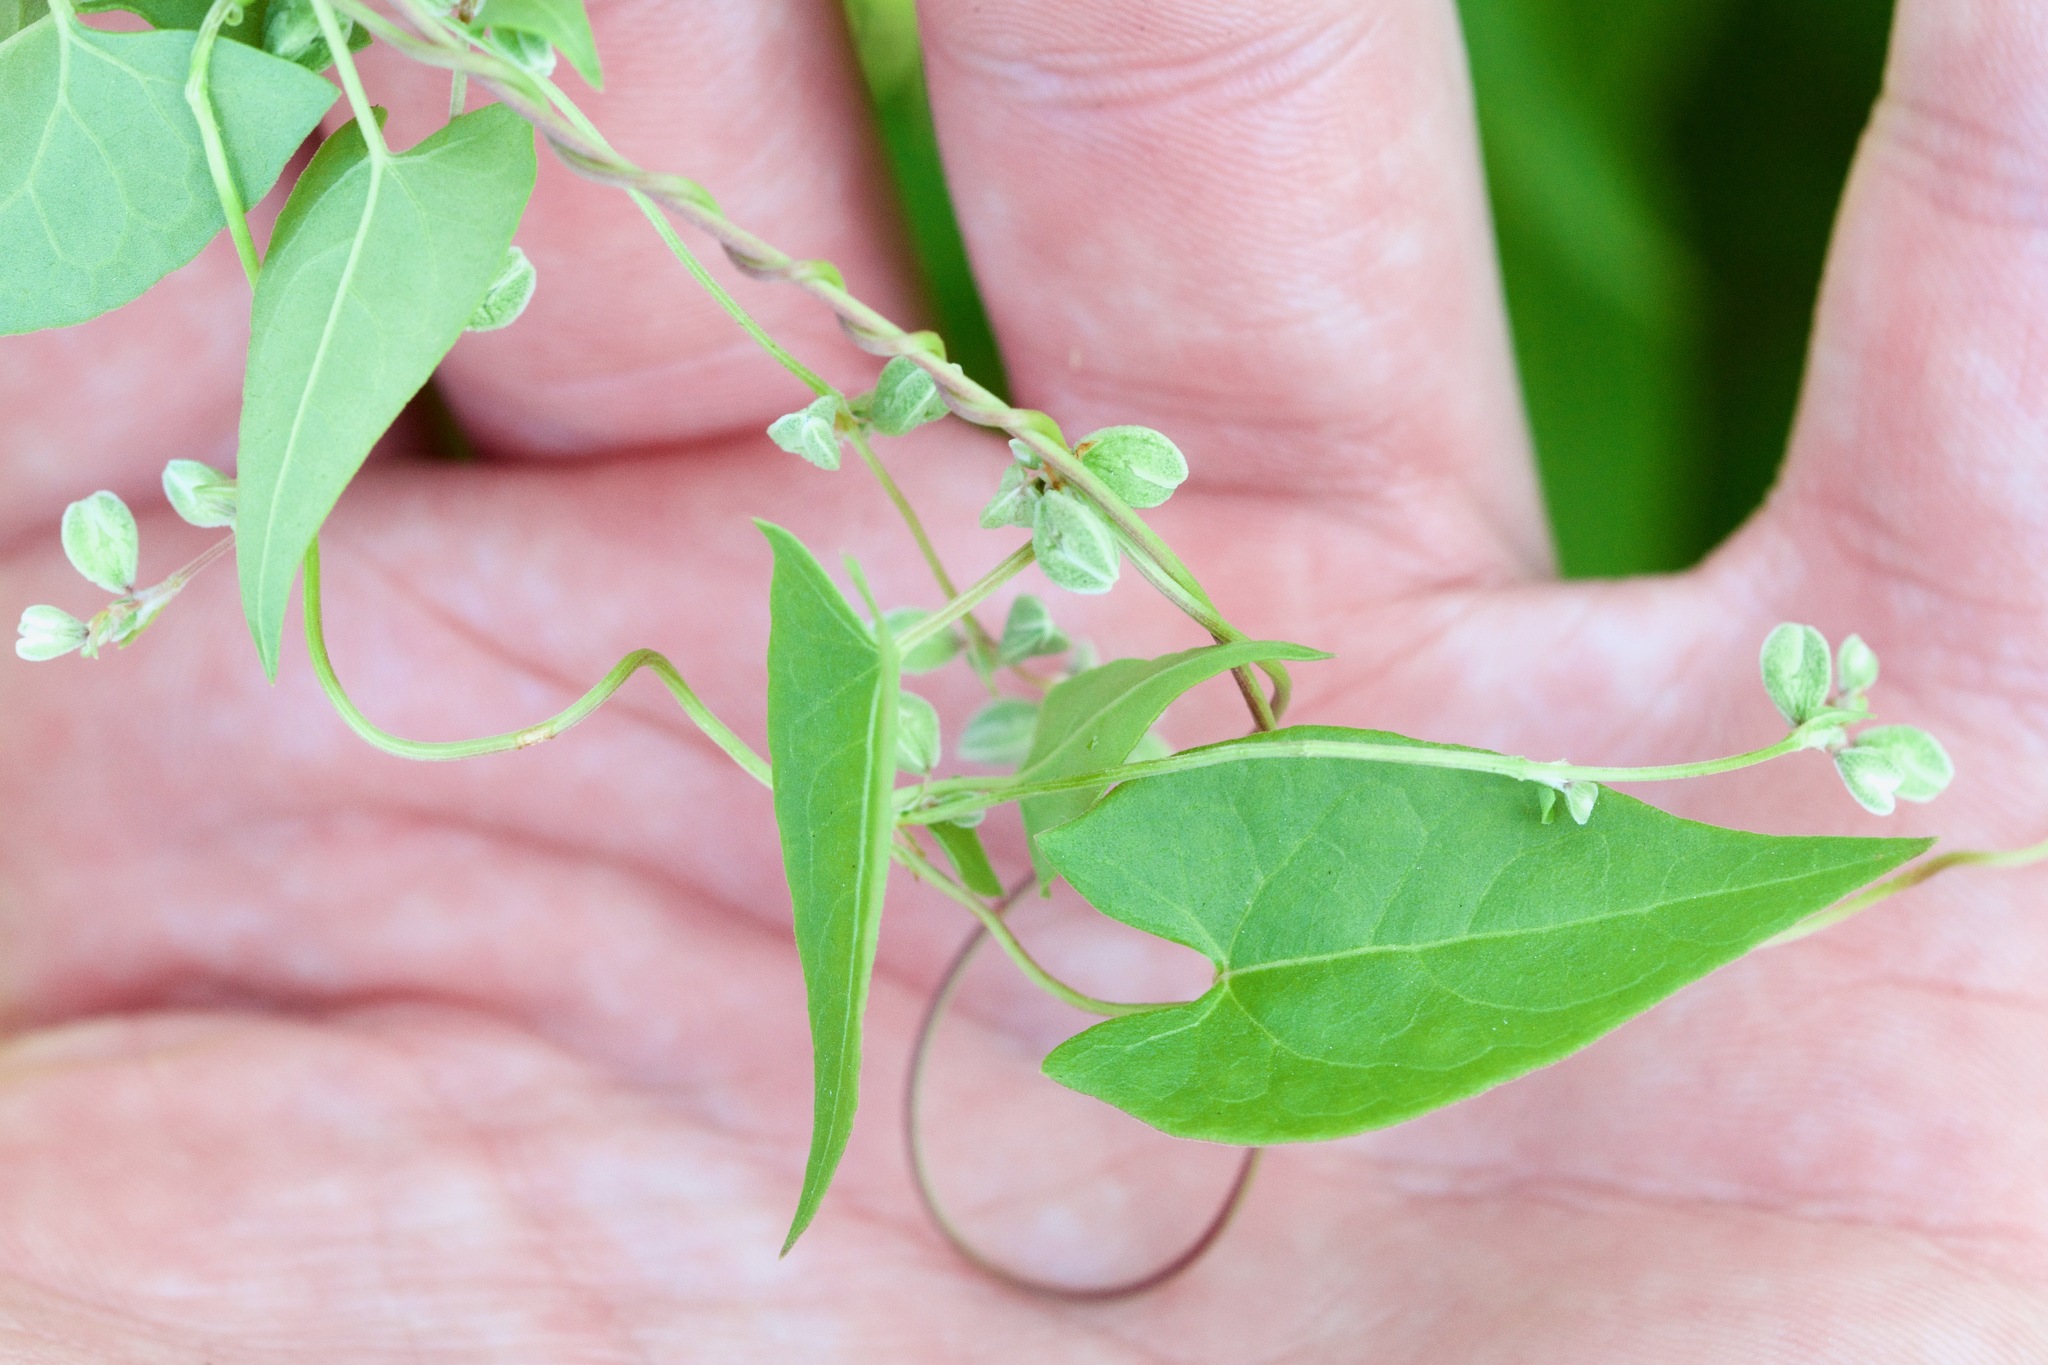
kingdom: Plantae
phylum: Tracheophyta
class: Magnoliopsida
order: Caryophyllales
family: Polygonaceae
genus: Fallopia
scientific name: Fallopia convolvulus
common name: Black bindweed
